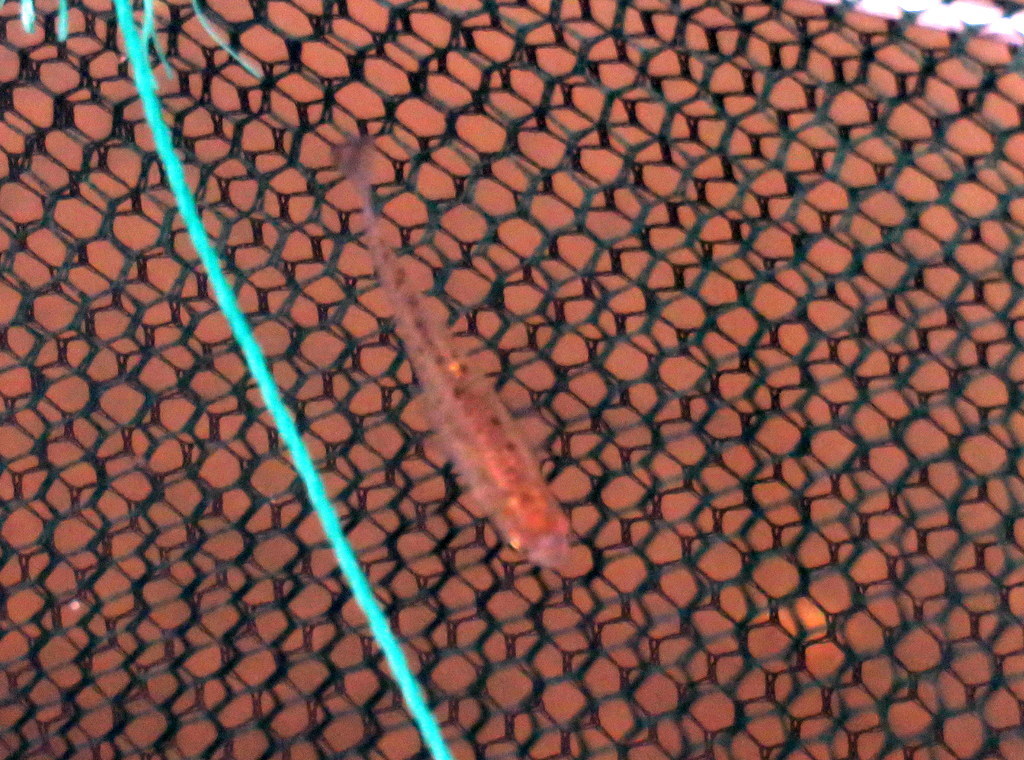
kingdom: Animalia
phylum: Chordata
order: Cyprinodontiformes
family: Anablepidae
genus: Jenynsia
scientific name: Jenynsia lineata
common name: Onesided livebearer
